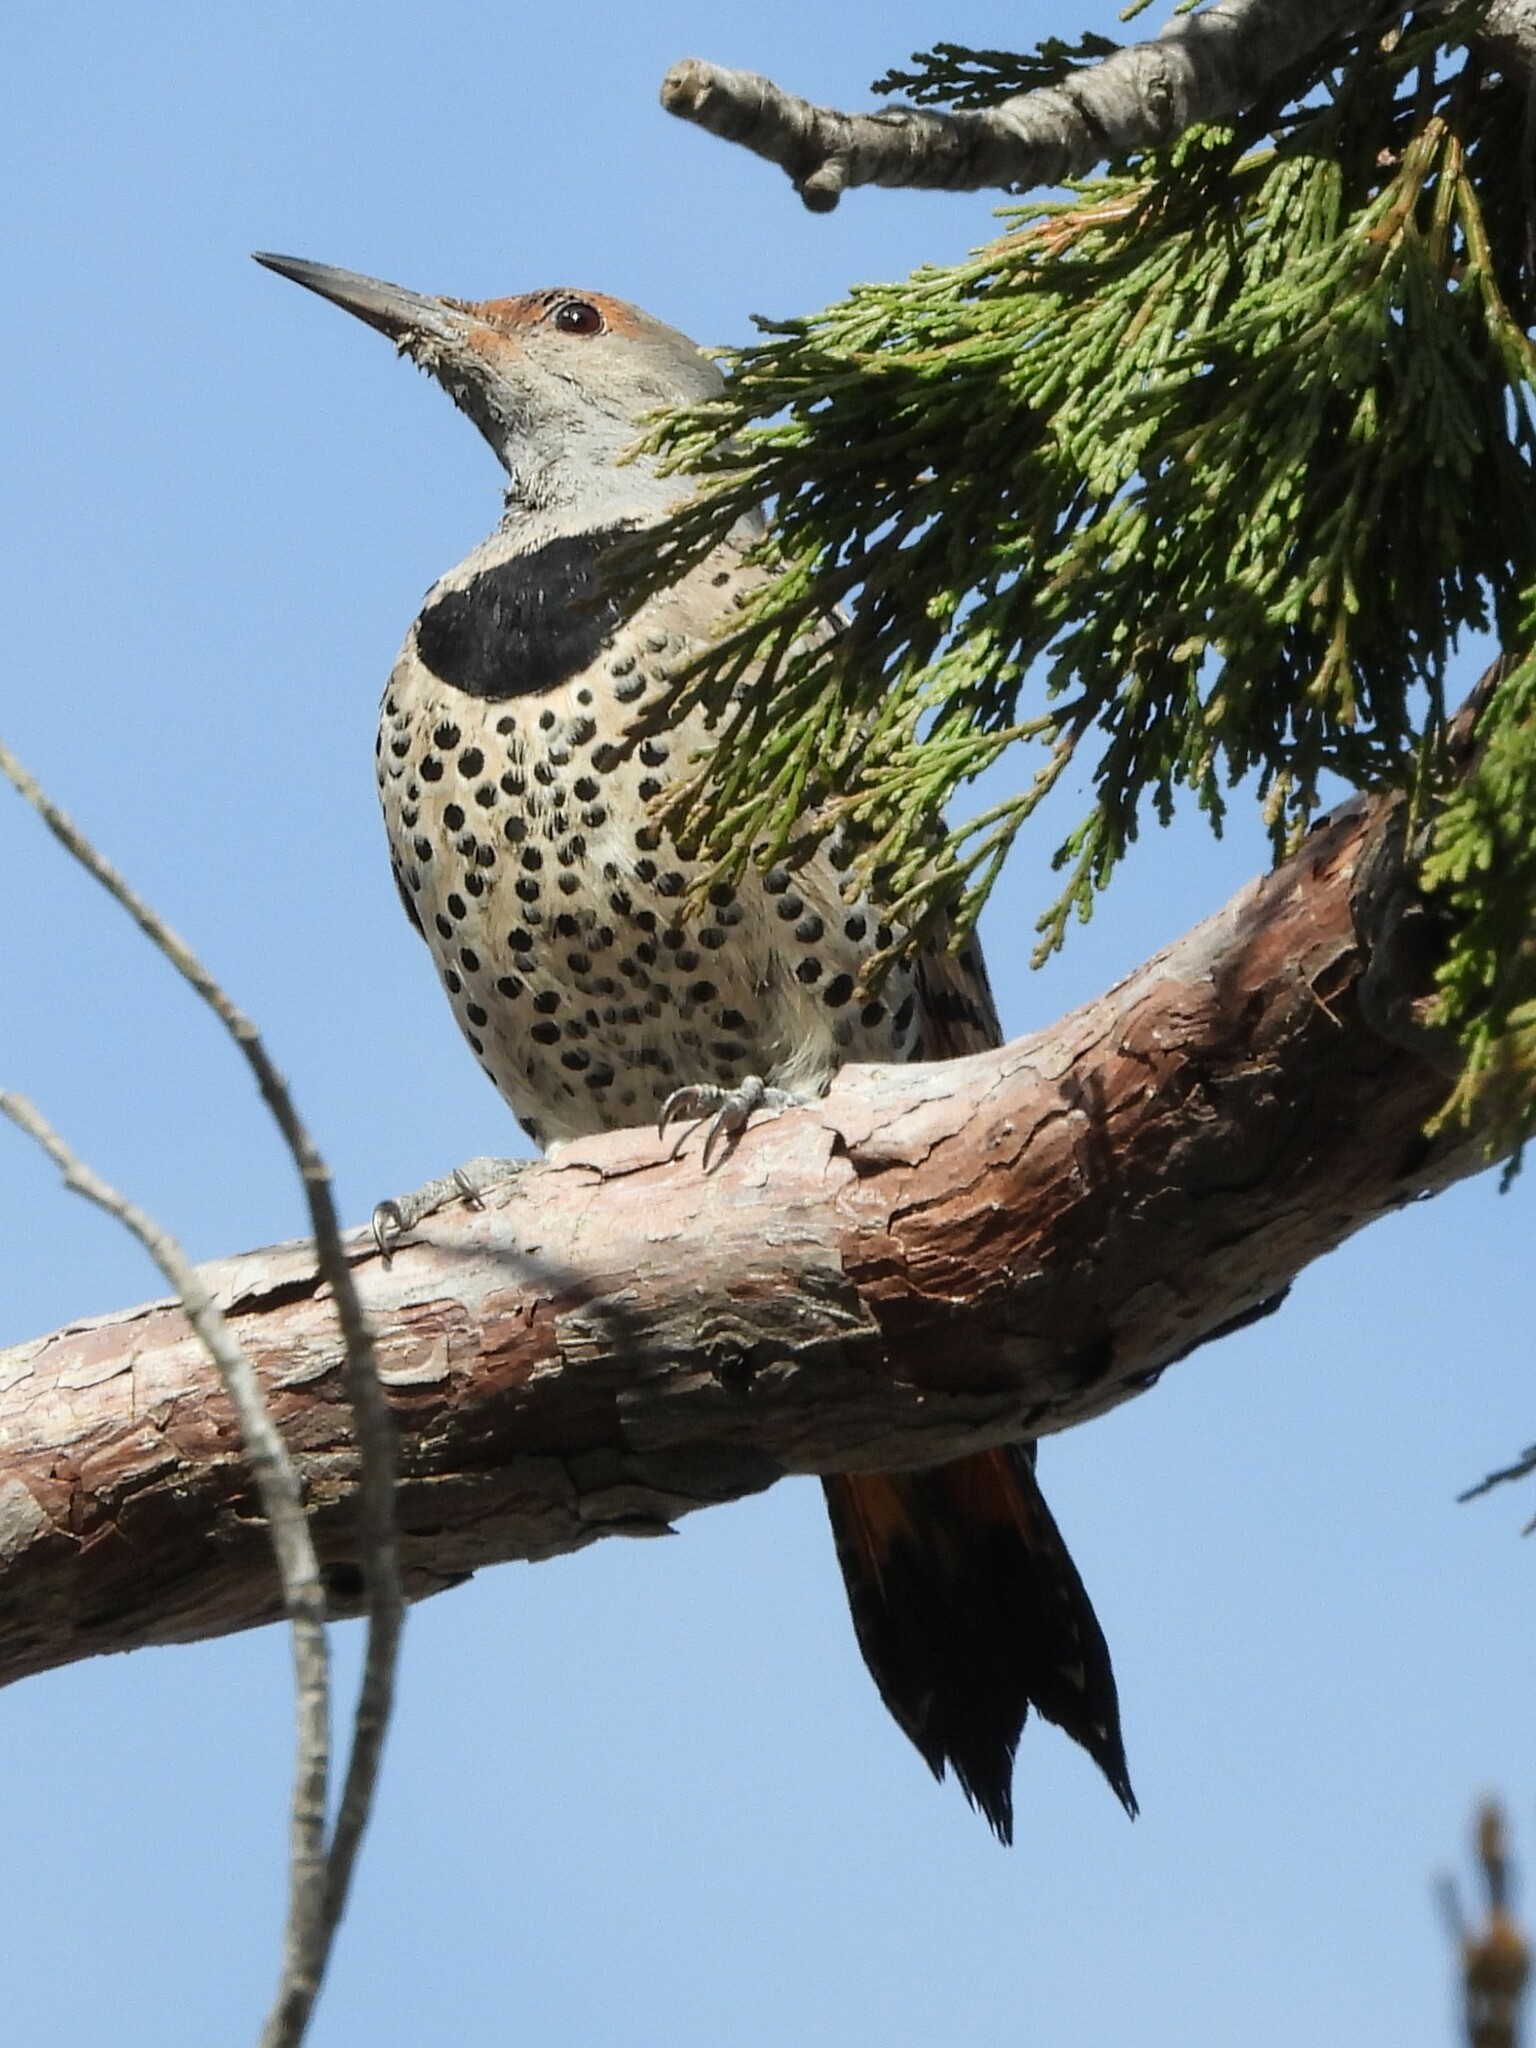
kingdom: Animalia
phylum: Chordata
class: Aves
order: Piciformes
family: Picidae
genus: Colaptes
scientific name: Colaptes auratus
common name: Northern flicker
